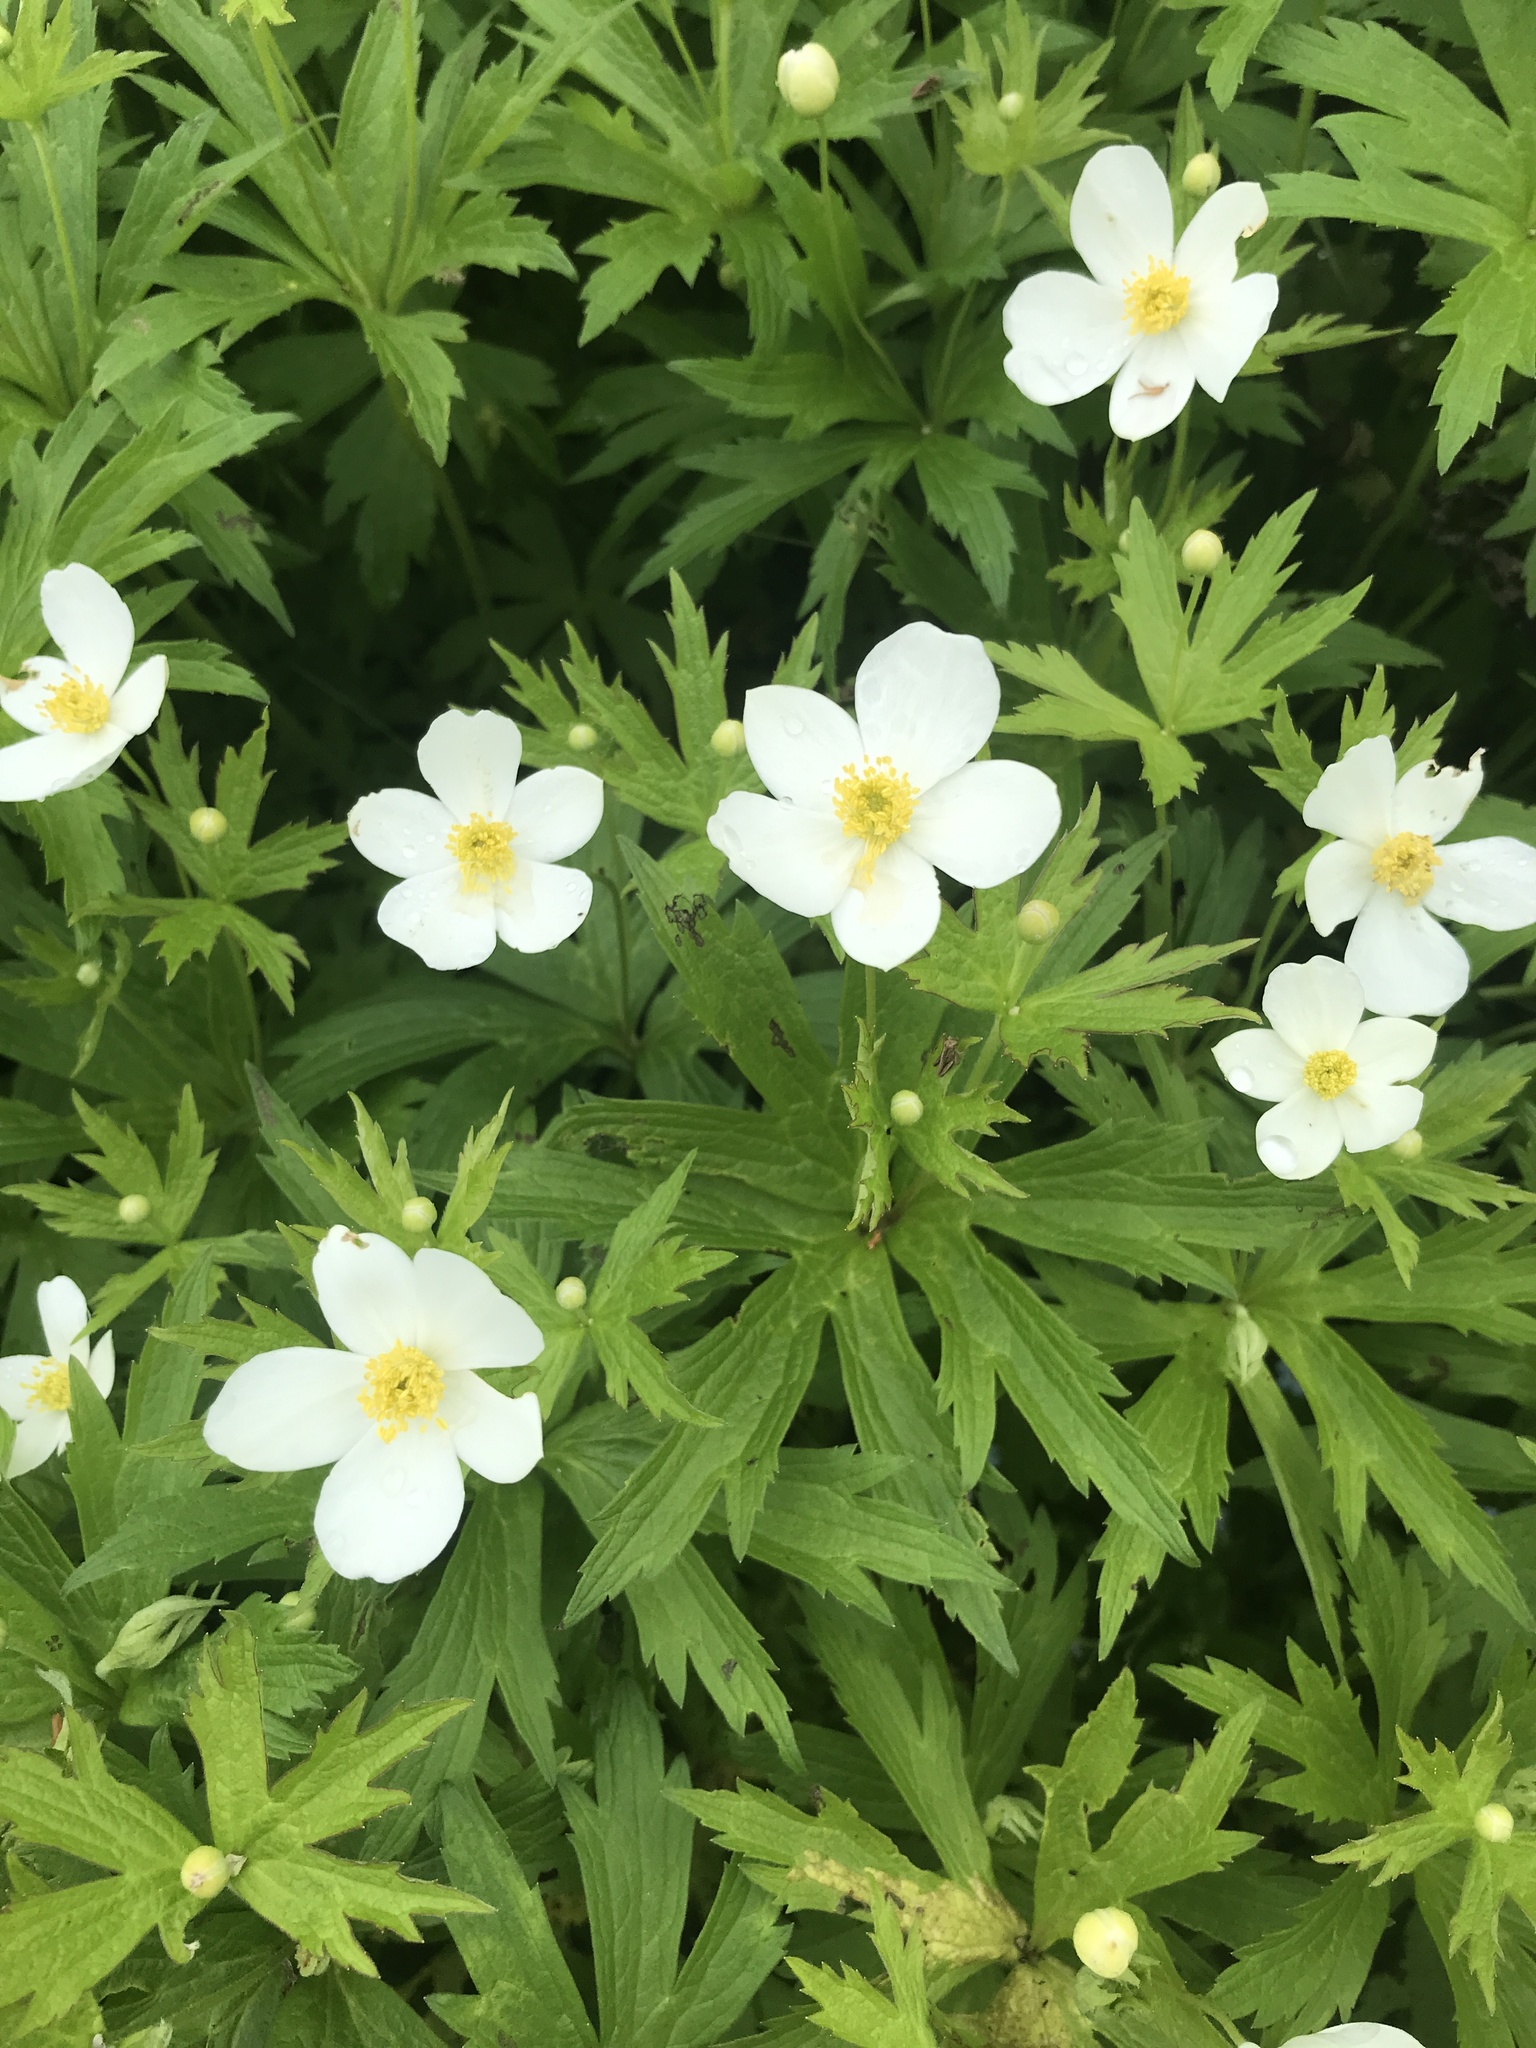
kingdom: Plantae
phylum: Tracheophyta
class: Magnoliopsida
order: Ranunculales
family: Ranunculaceae
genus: Anemonastrum
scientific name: Anemonastrum canadense
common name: Canada anemone
